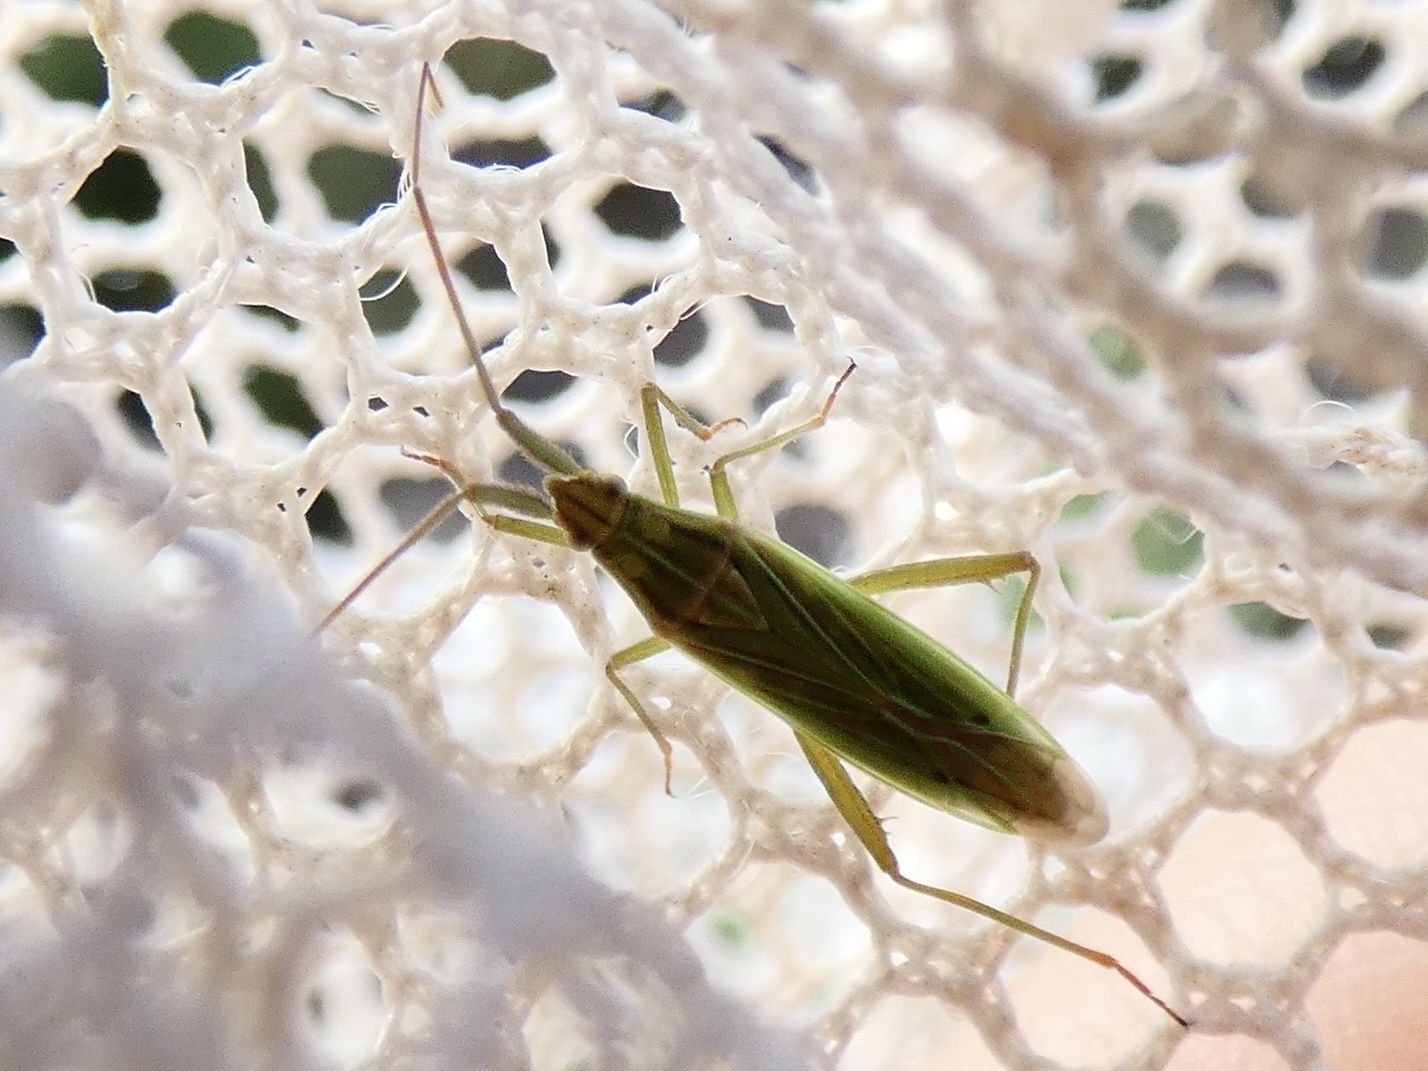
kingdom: Animalia
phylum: Arthropoda
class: Insecta
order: Hemiptera
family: Miridae
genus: Stenodema
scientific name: Stenodema calcarata
